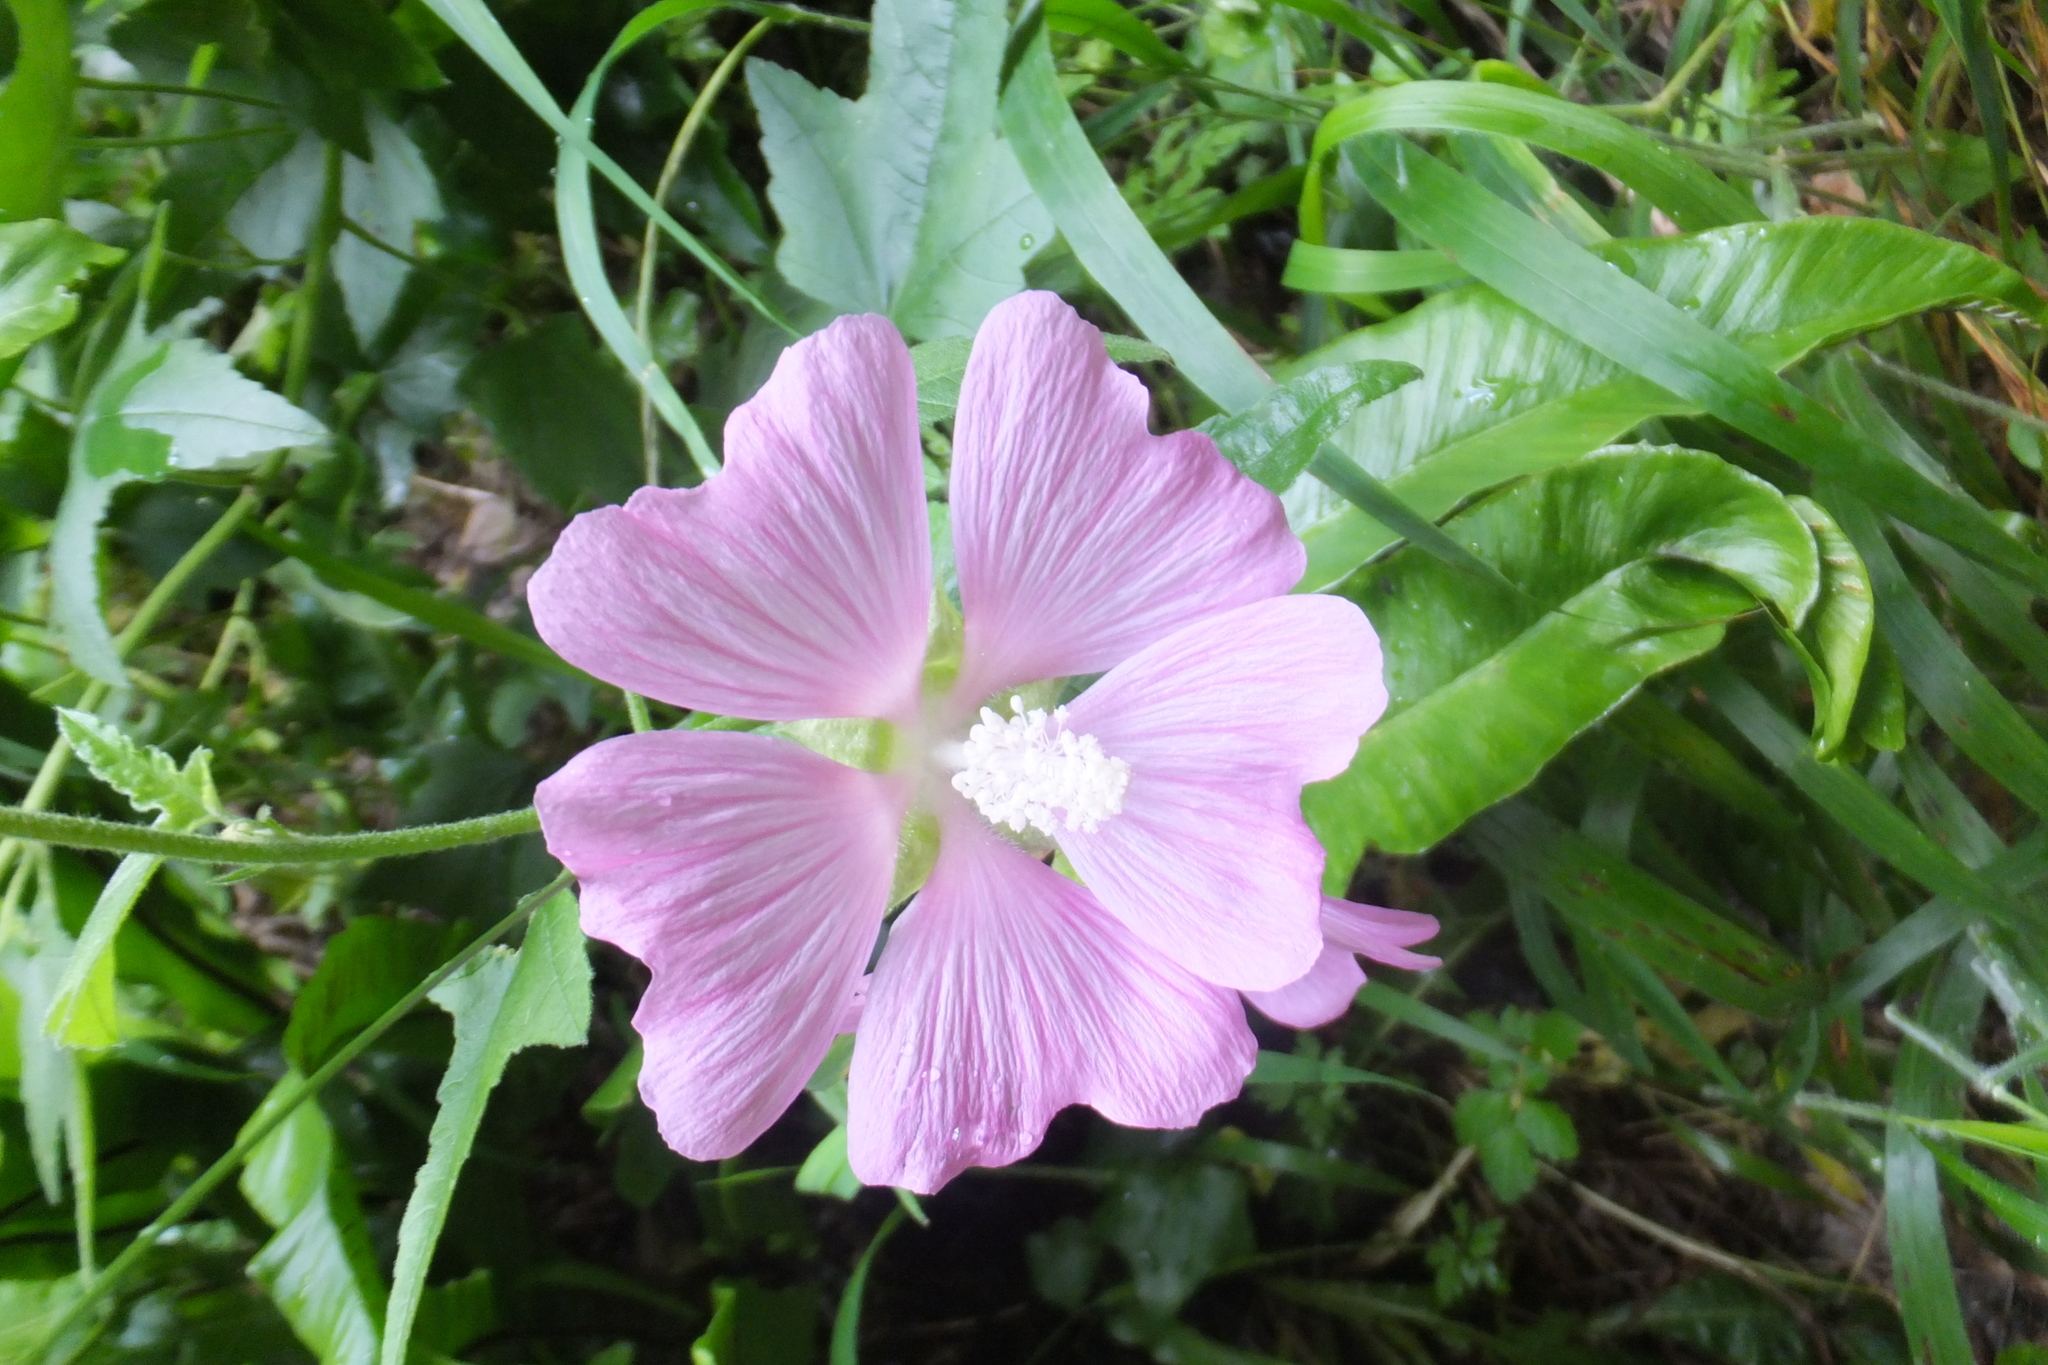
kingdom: Plantae
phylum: Tracheophyta
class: Magnoliopsida
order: Malvales
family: Malvaceae
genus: Malva
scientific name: Malva alcea
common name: Greater musk-mallow
